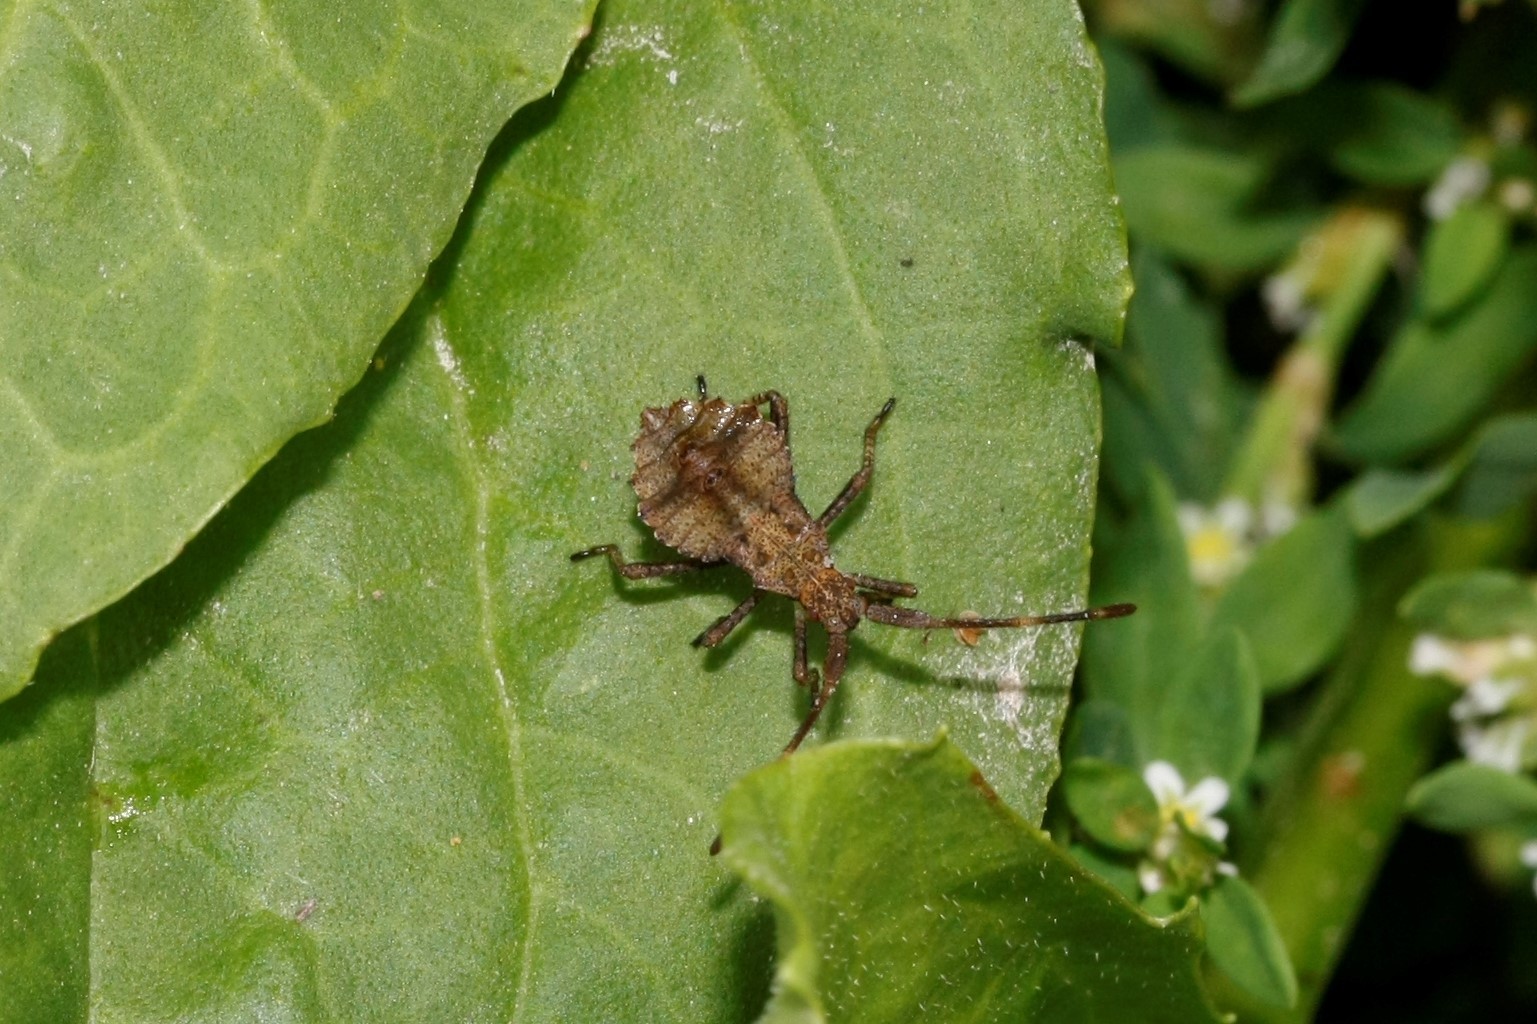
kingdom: Animalia
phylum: Arthropoda
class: Insecta
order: Hemiptera
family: Coreidae
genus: Coreus
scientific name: Coreus marginatus
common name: Dock bug
